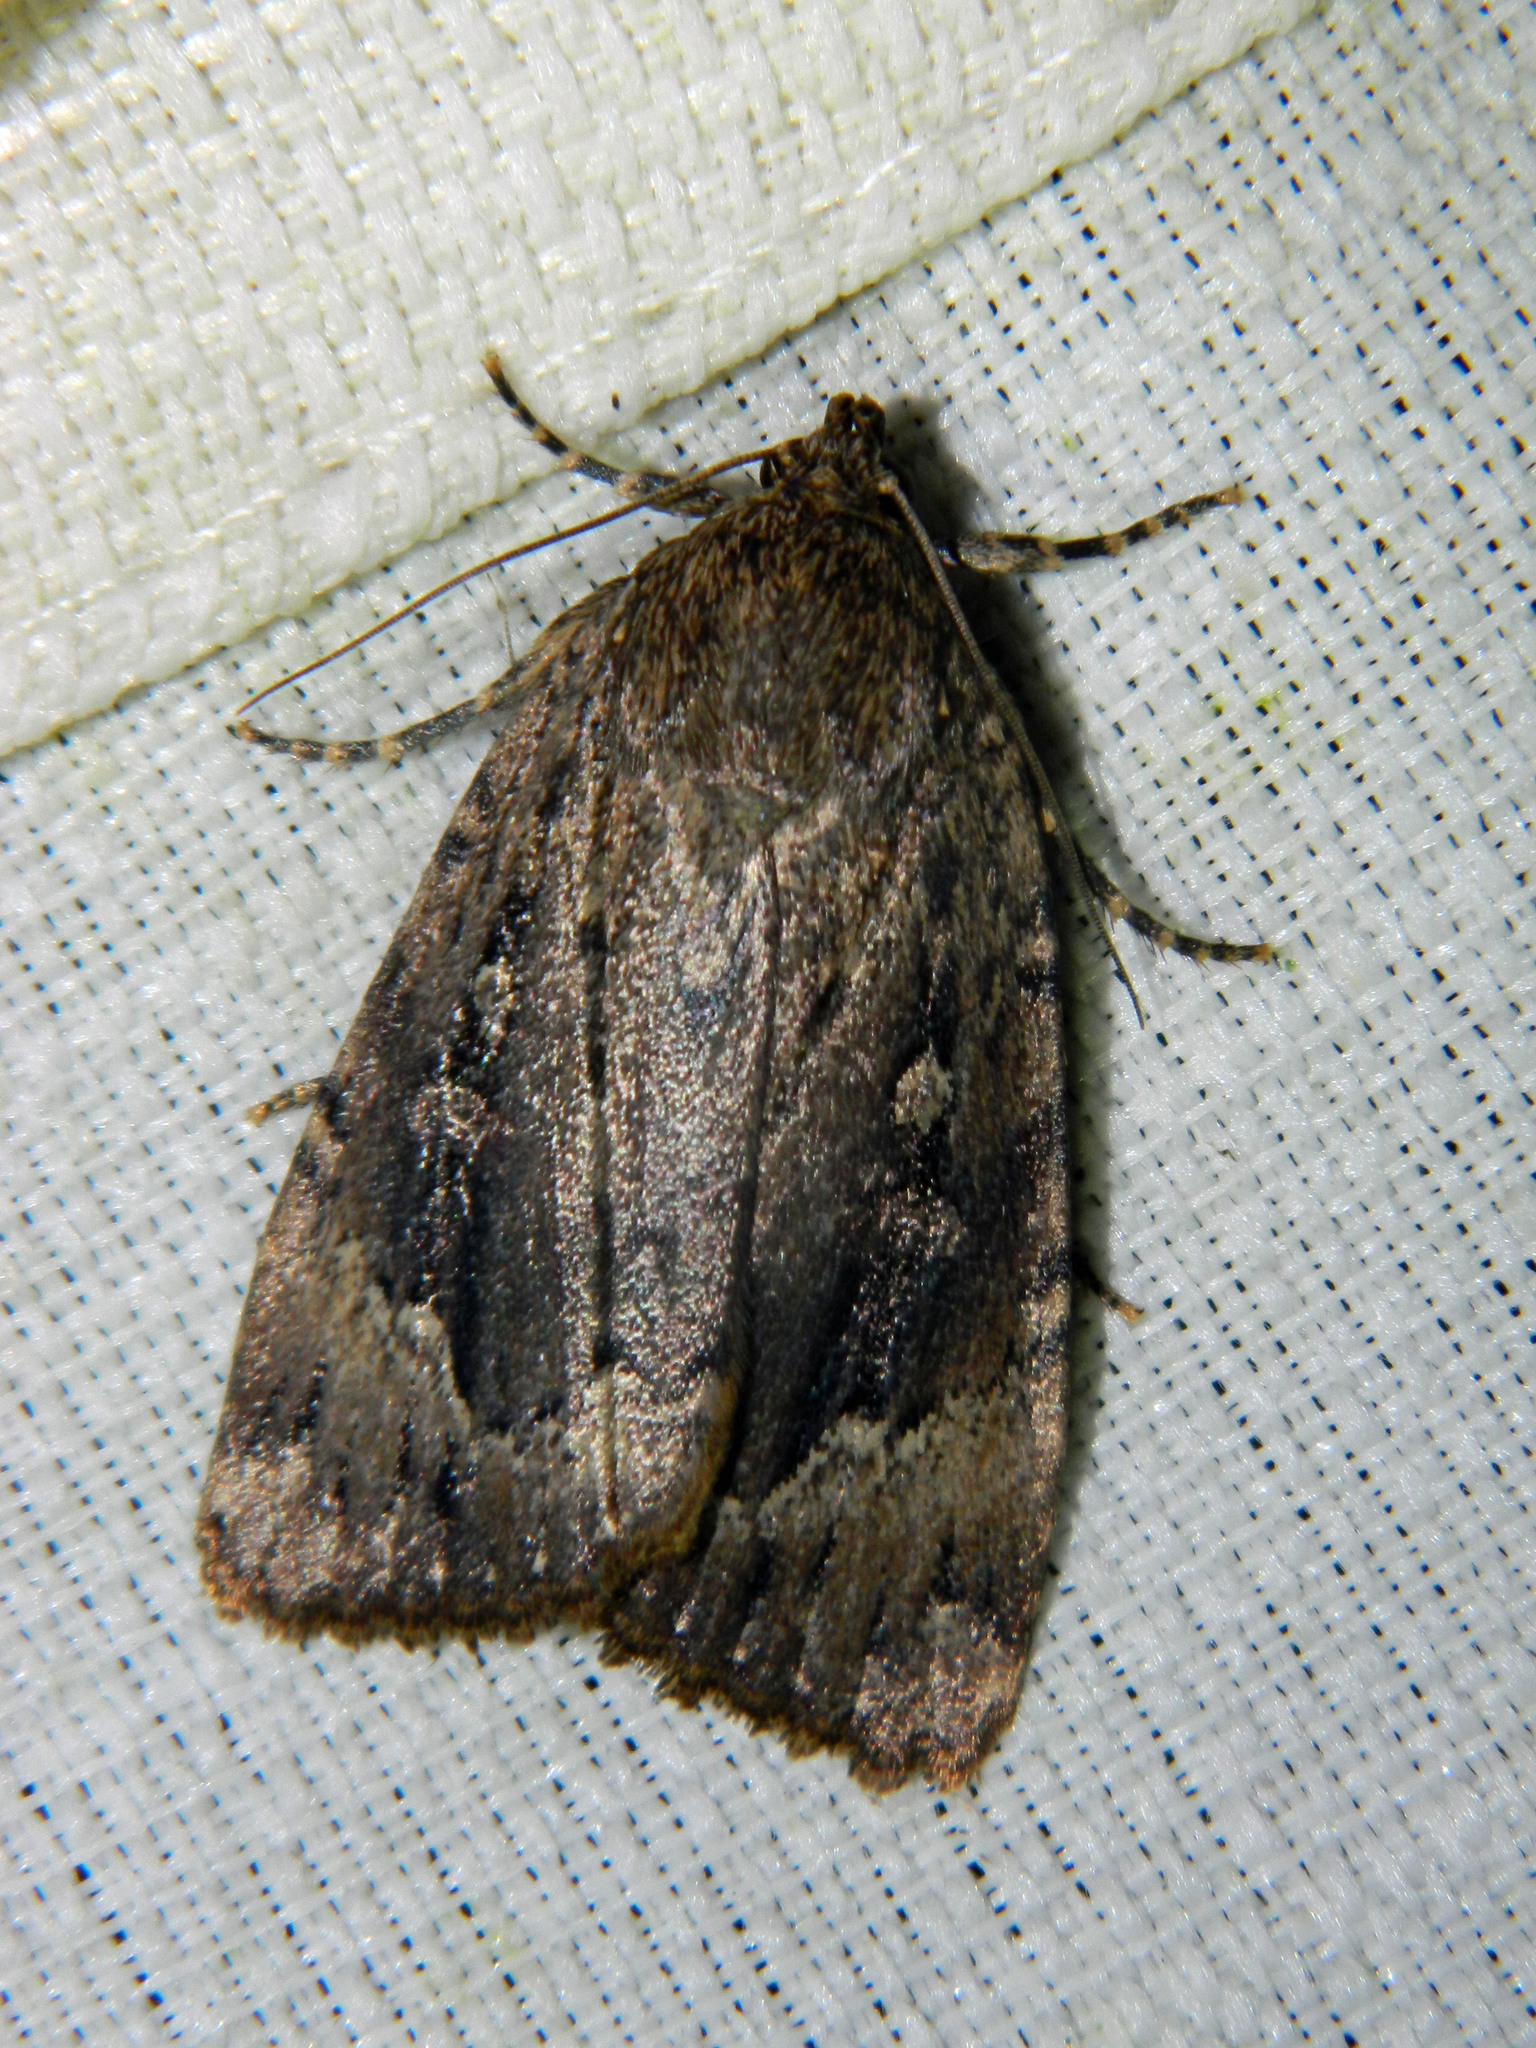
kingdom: Animalia
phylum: Arthropoda
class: Insecta
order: Lepidoptera
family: Noctuidae
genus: Amphipyra
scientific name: Amphipyra pyramidoides
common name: American copper underwing
